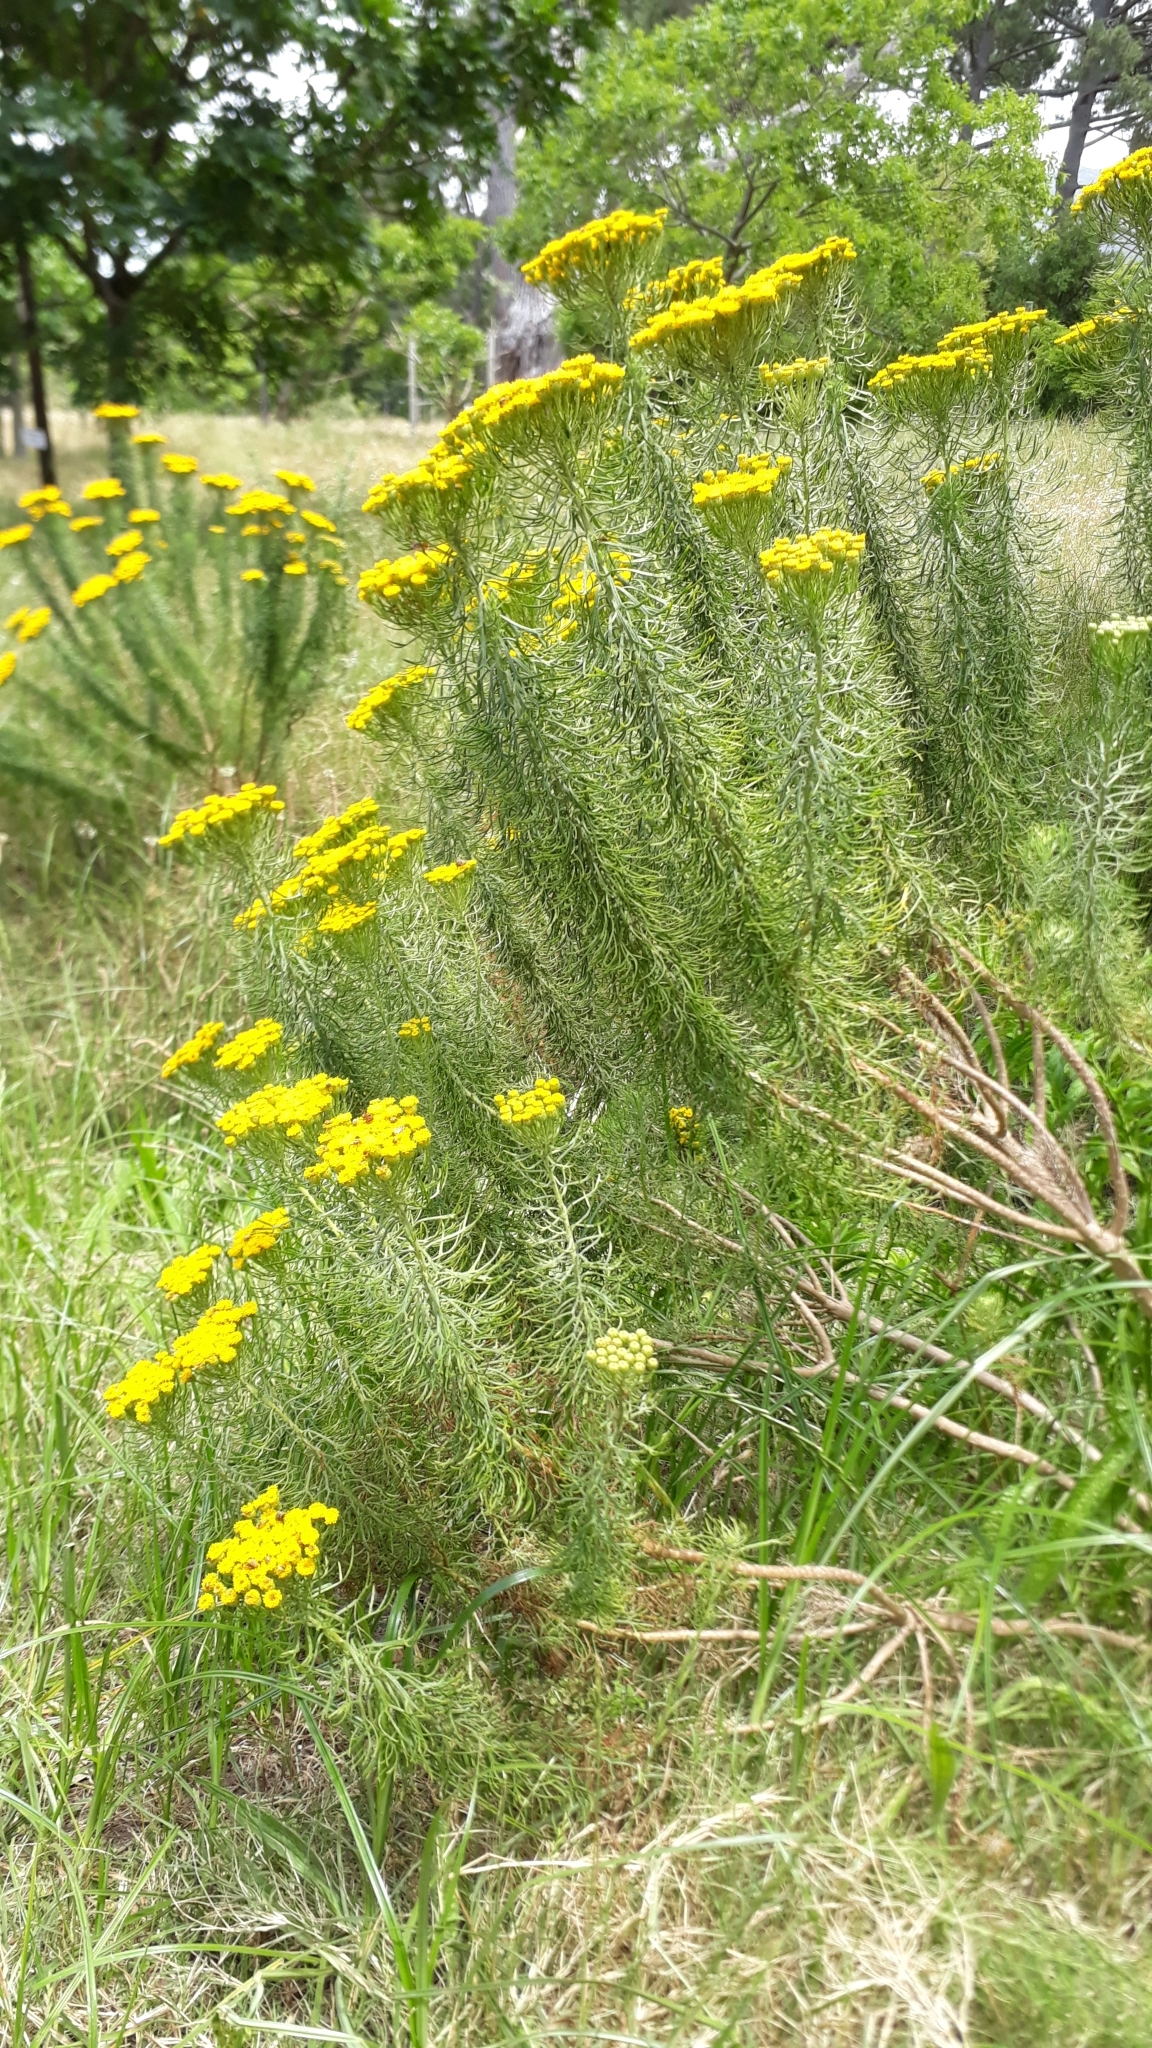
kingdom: Plantae
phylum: Tracheophyta
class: Magnoliopsida
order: Asterales
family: Asteraceae
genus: Athanasia
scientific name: Athanasia crithmifolia
